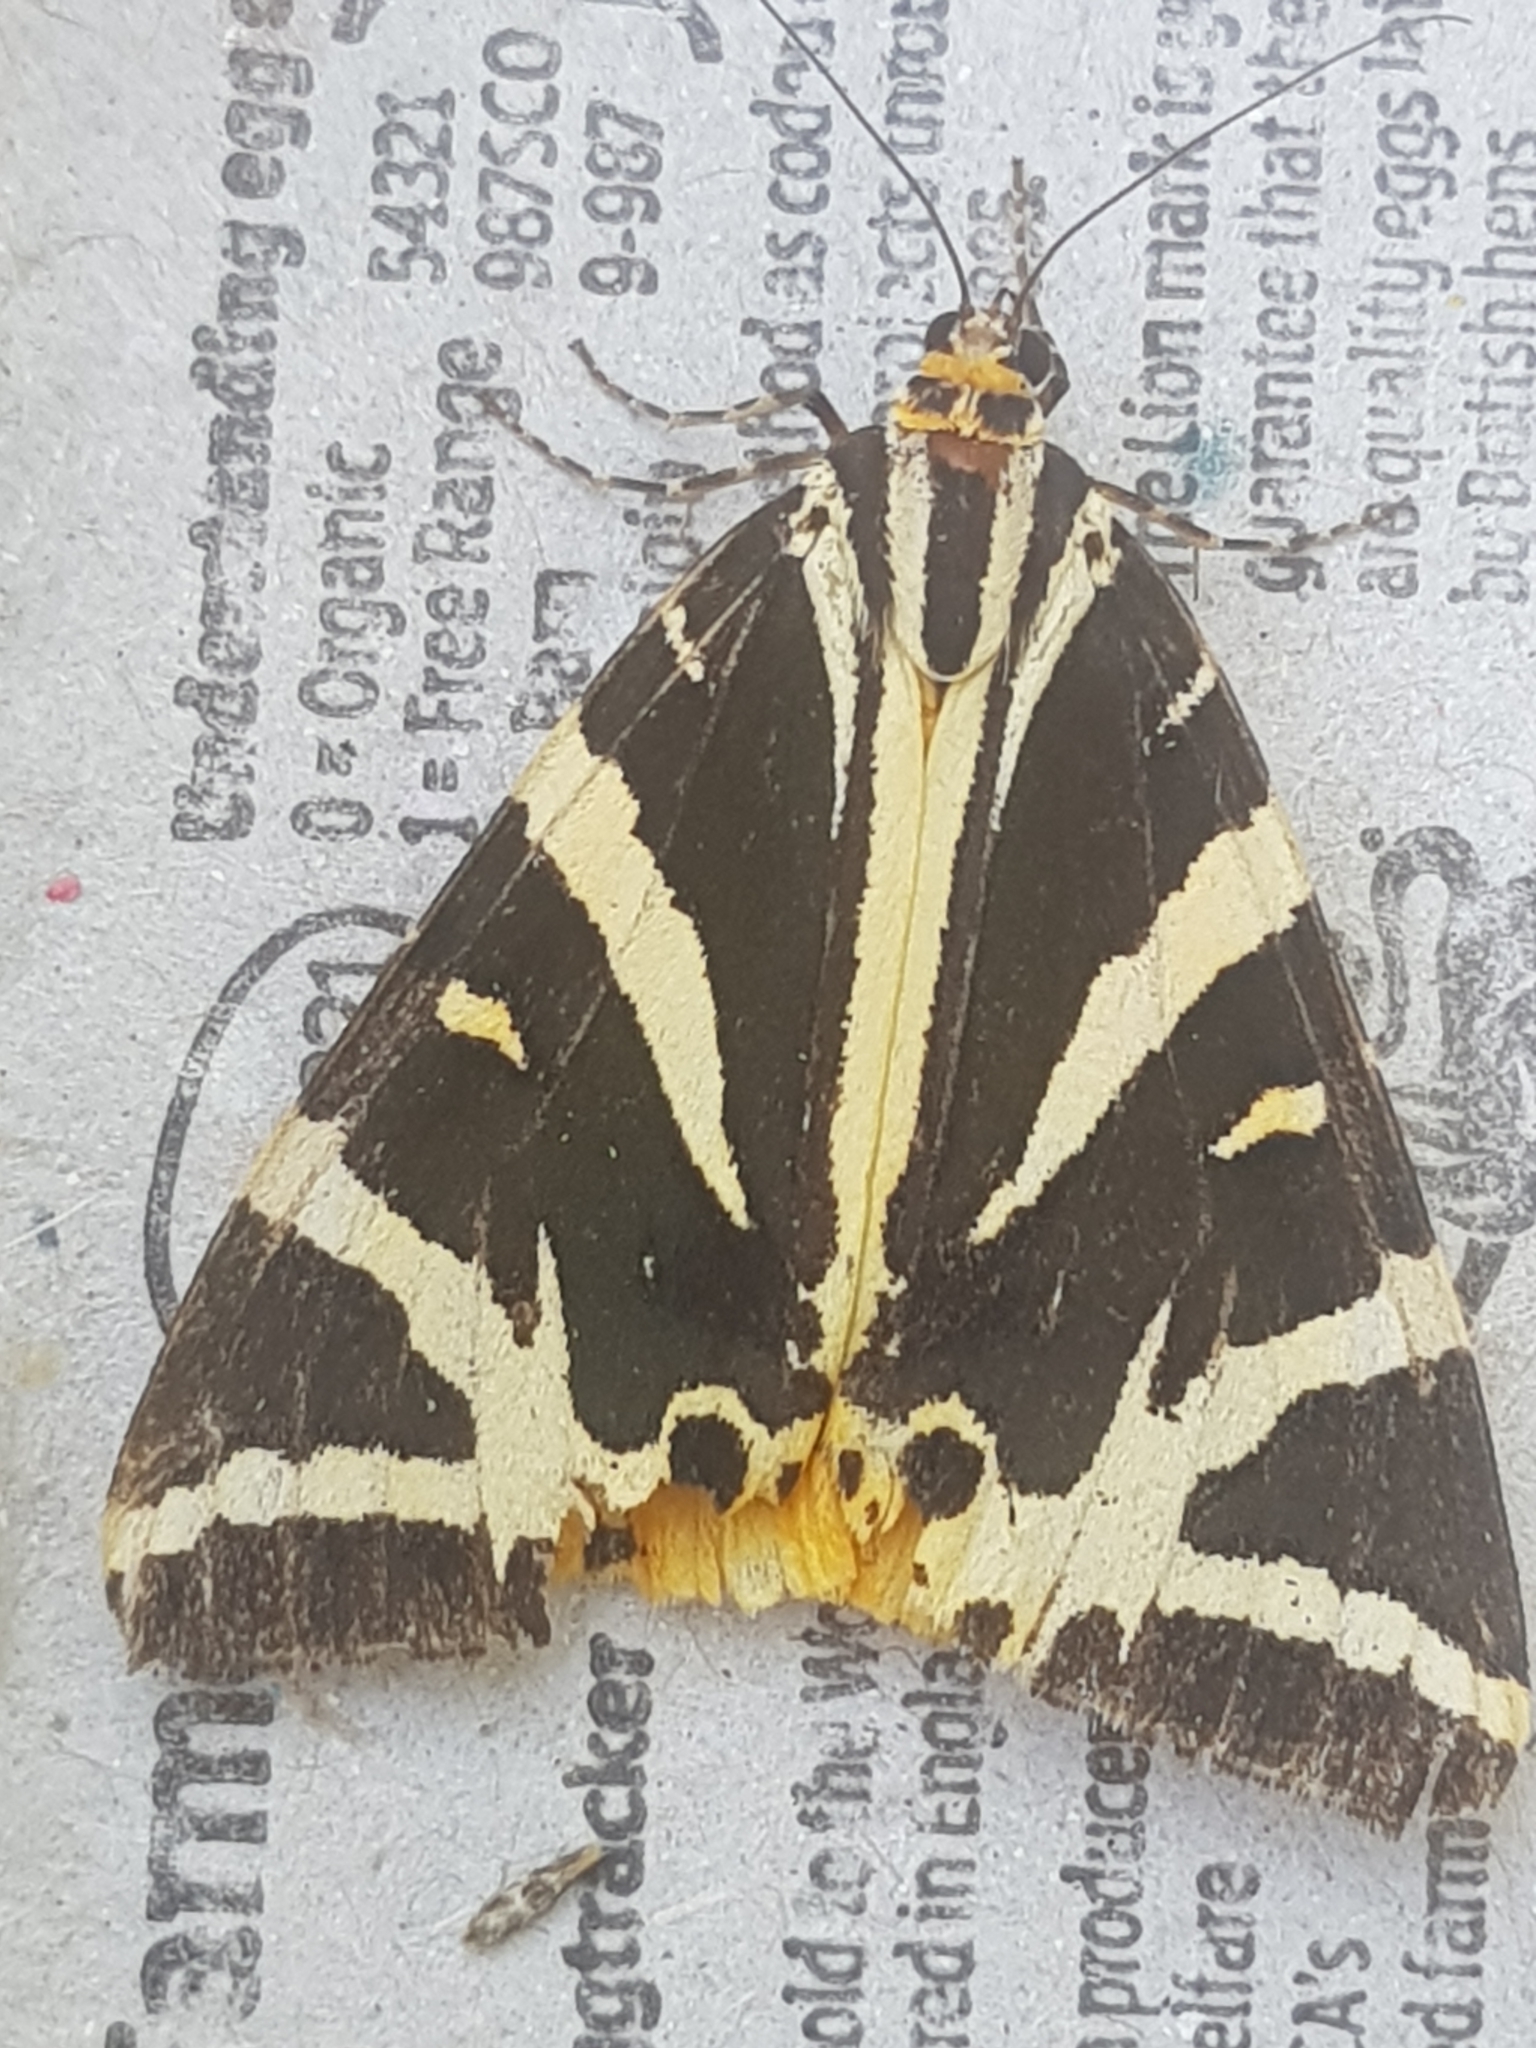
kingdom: Animalia
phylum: Arthropoda
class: Insecta
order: Lepidoptera
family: Erebidae
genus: Euplagia
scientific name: Euplagia quadripunctaria
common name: Jersey tiger
